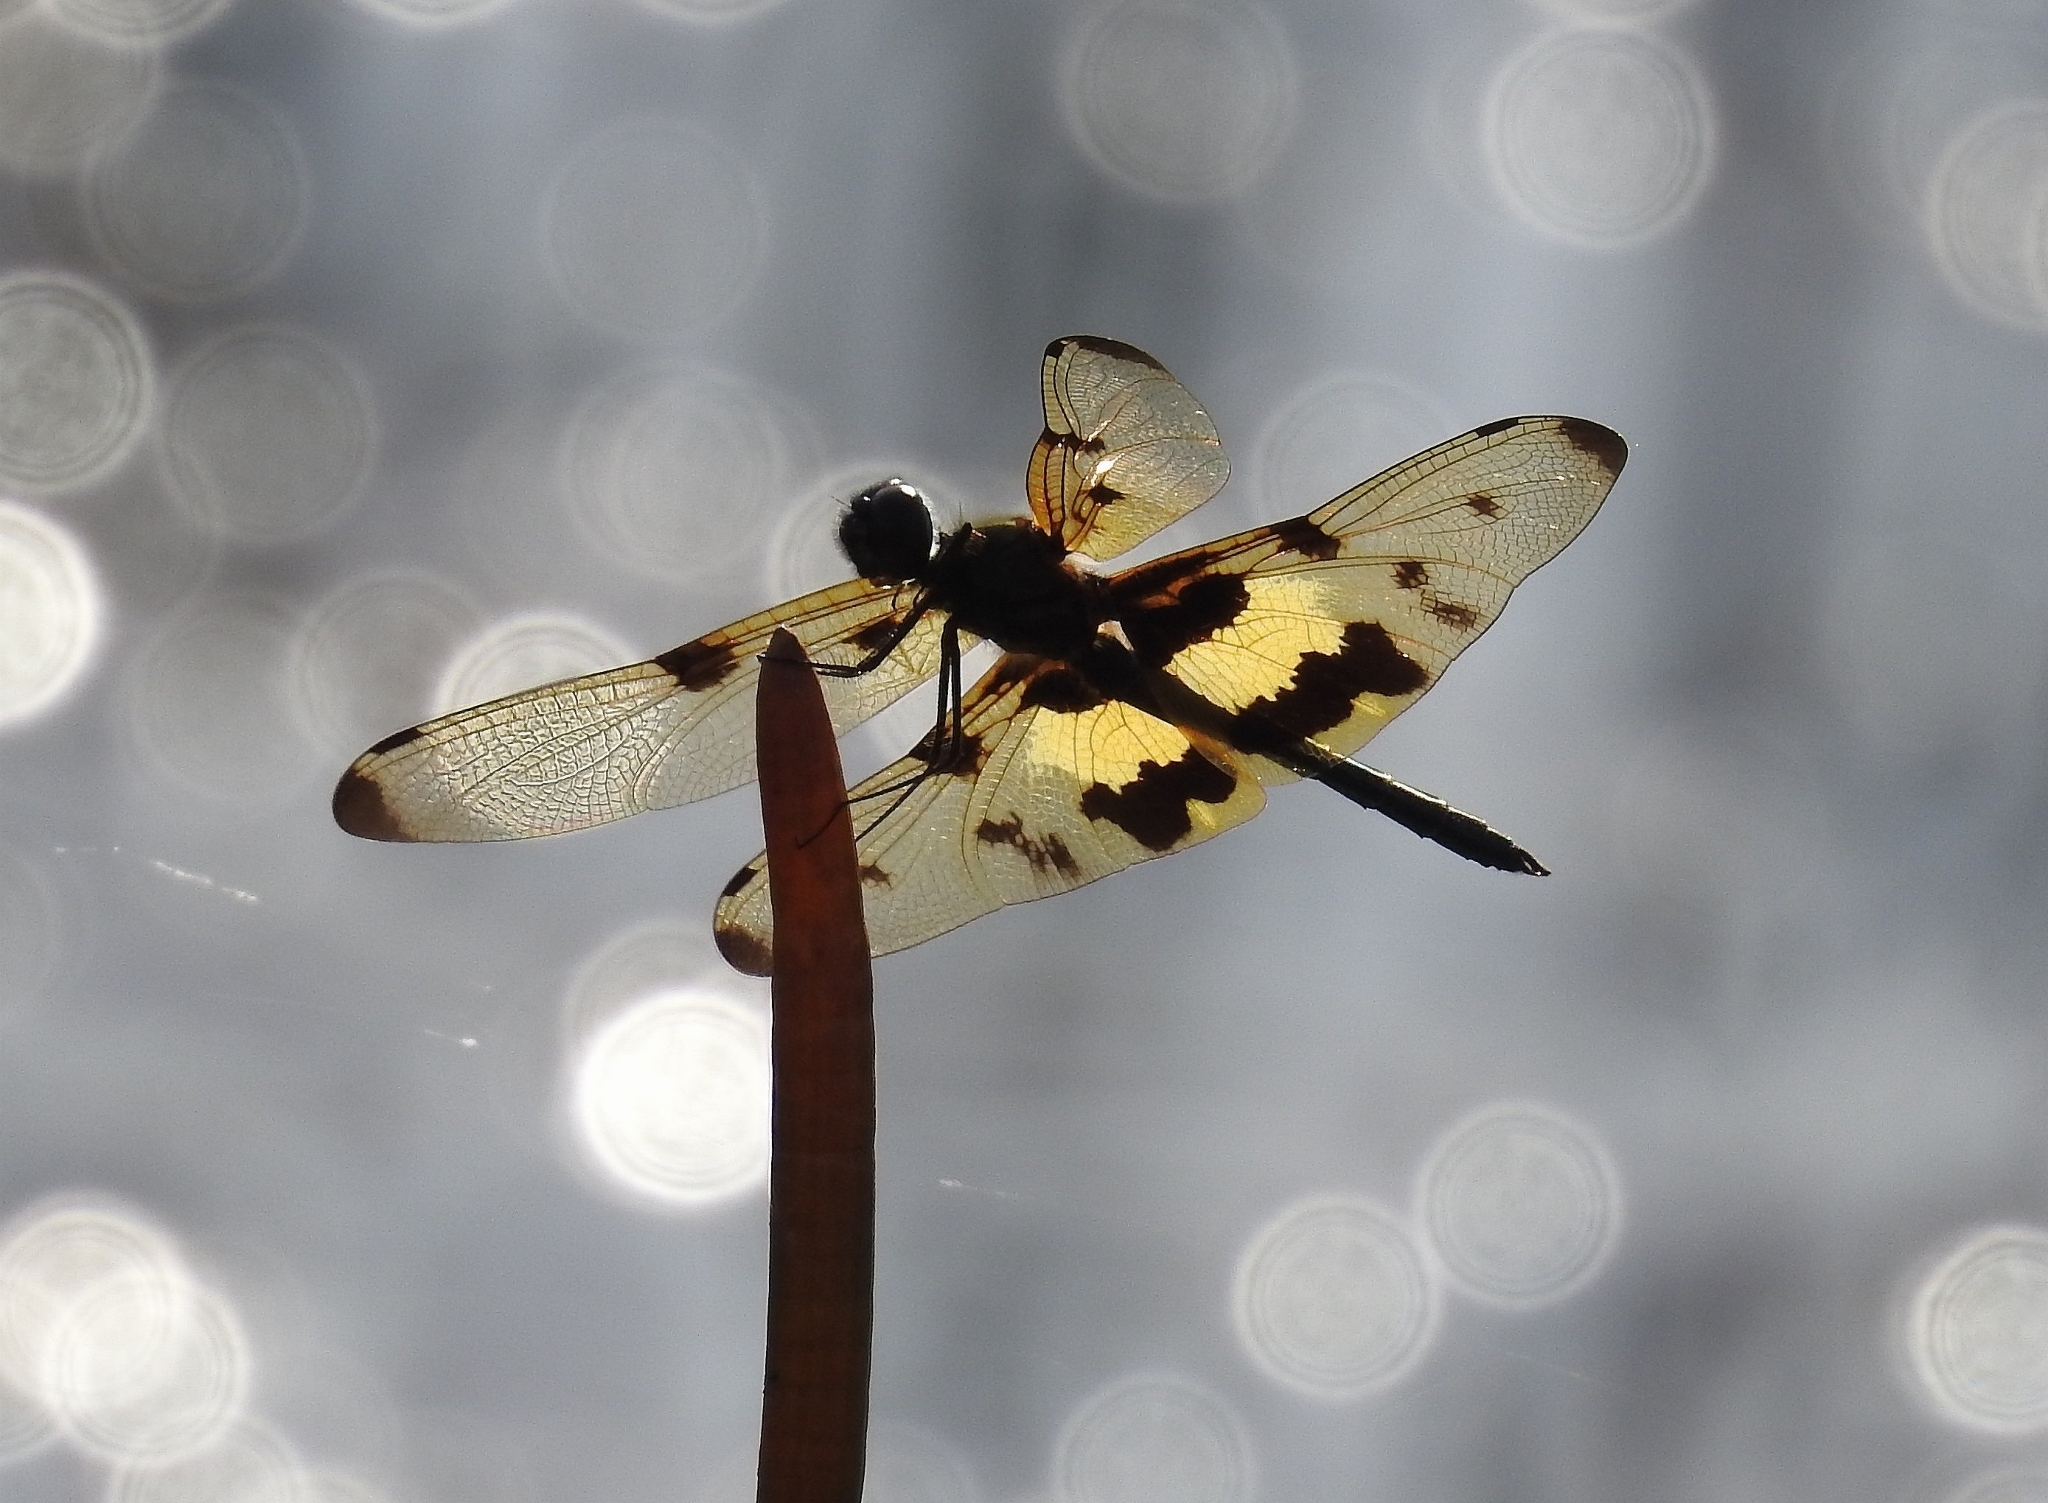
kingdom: Animalia
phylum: Arthropoda
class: Insecta
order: Odonata
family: Libellulidae
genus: Rhyothemis
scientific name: Rhyothemis variegata
